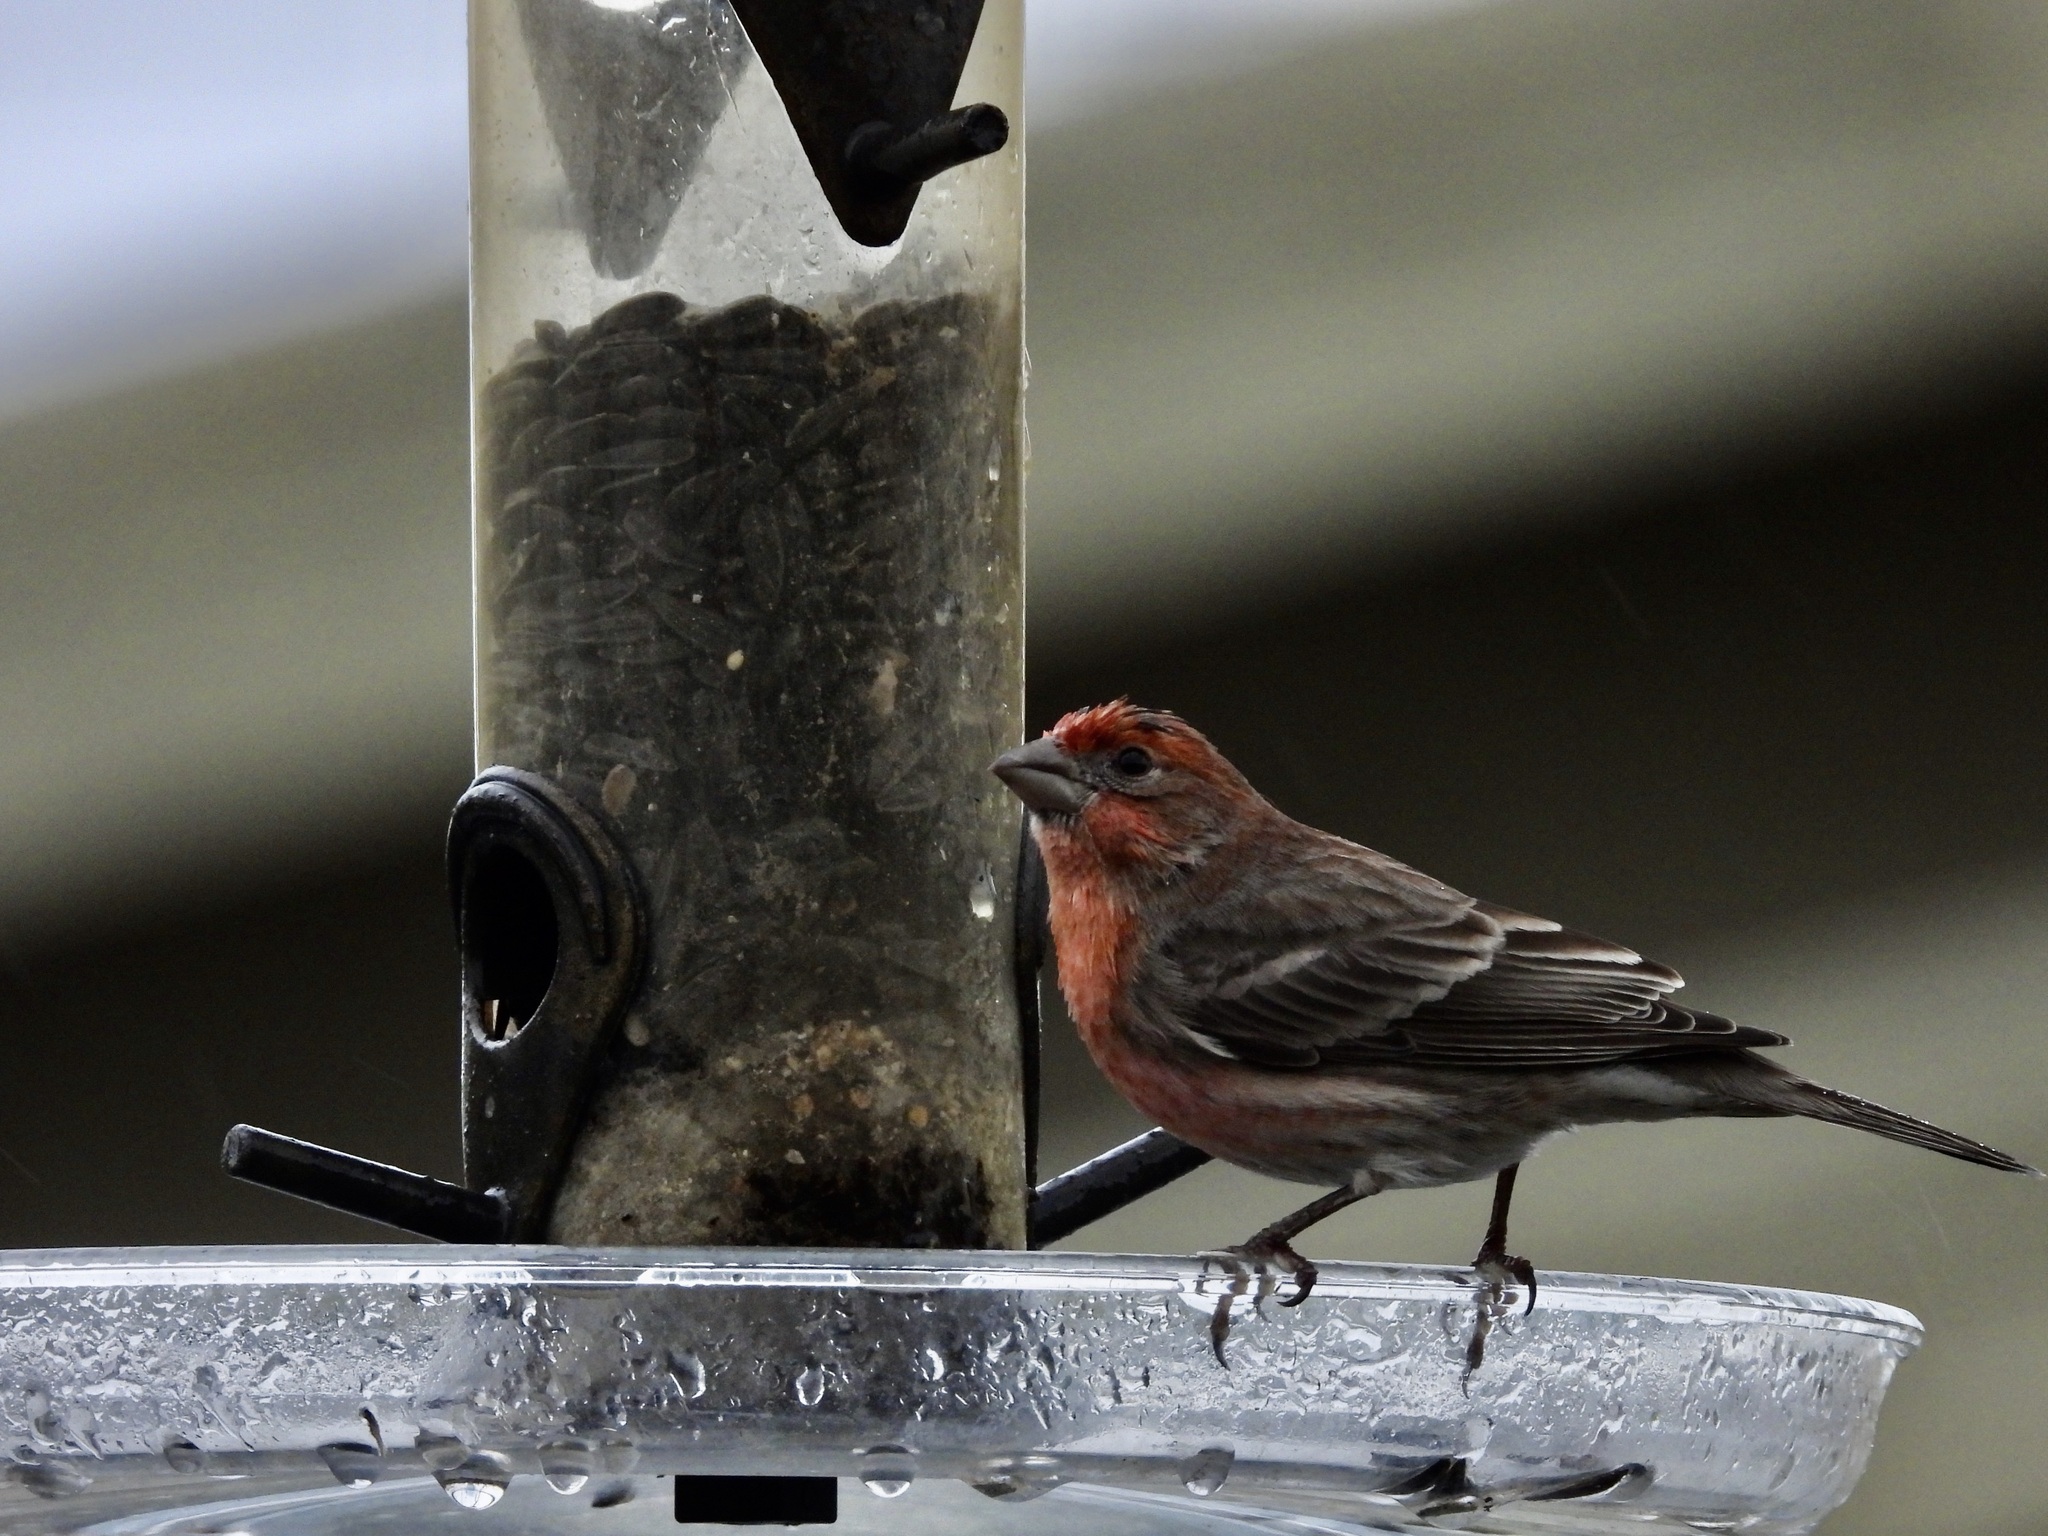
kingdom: Animalia
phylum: Chordata
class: Aves
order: Passeriformes
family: Fringillidae
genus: Haemorhous
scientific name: Haemorhous mexicanus
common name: House finch
